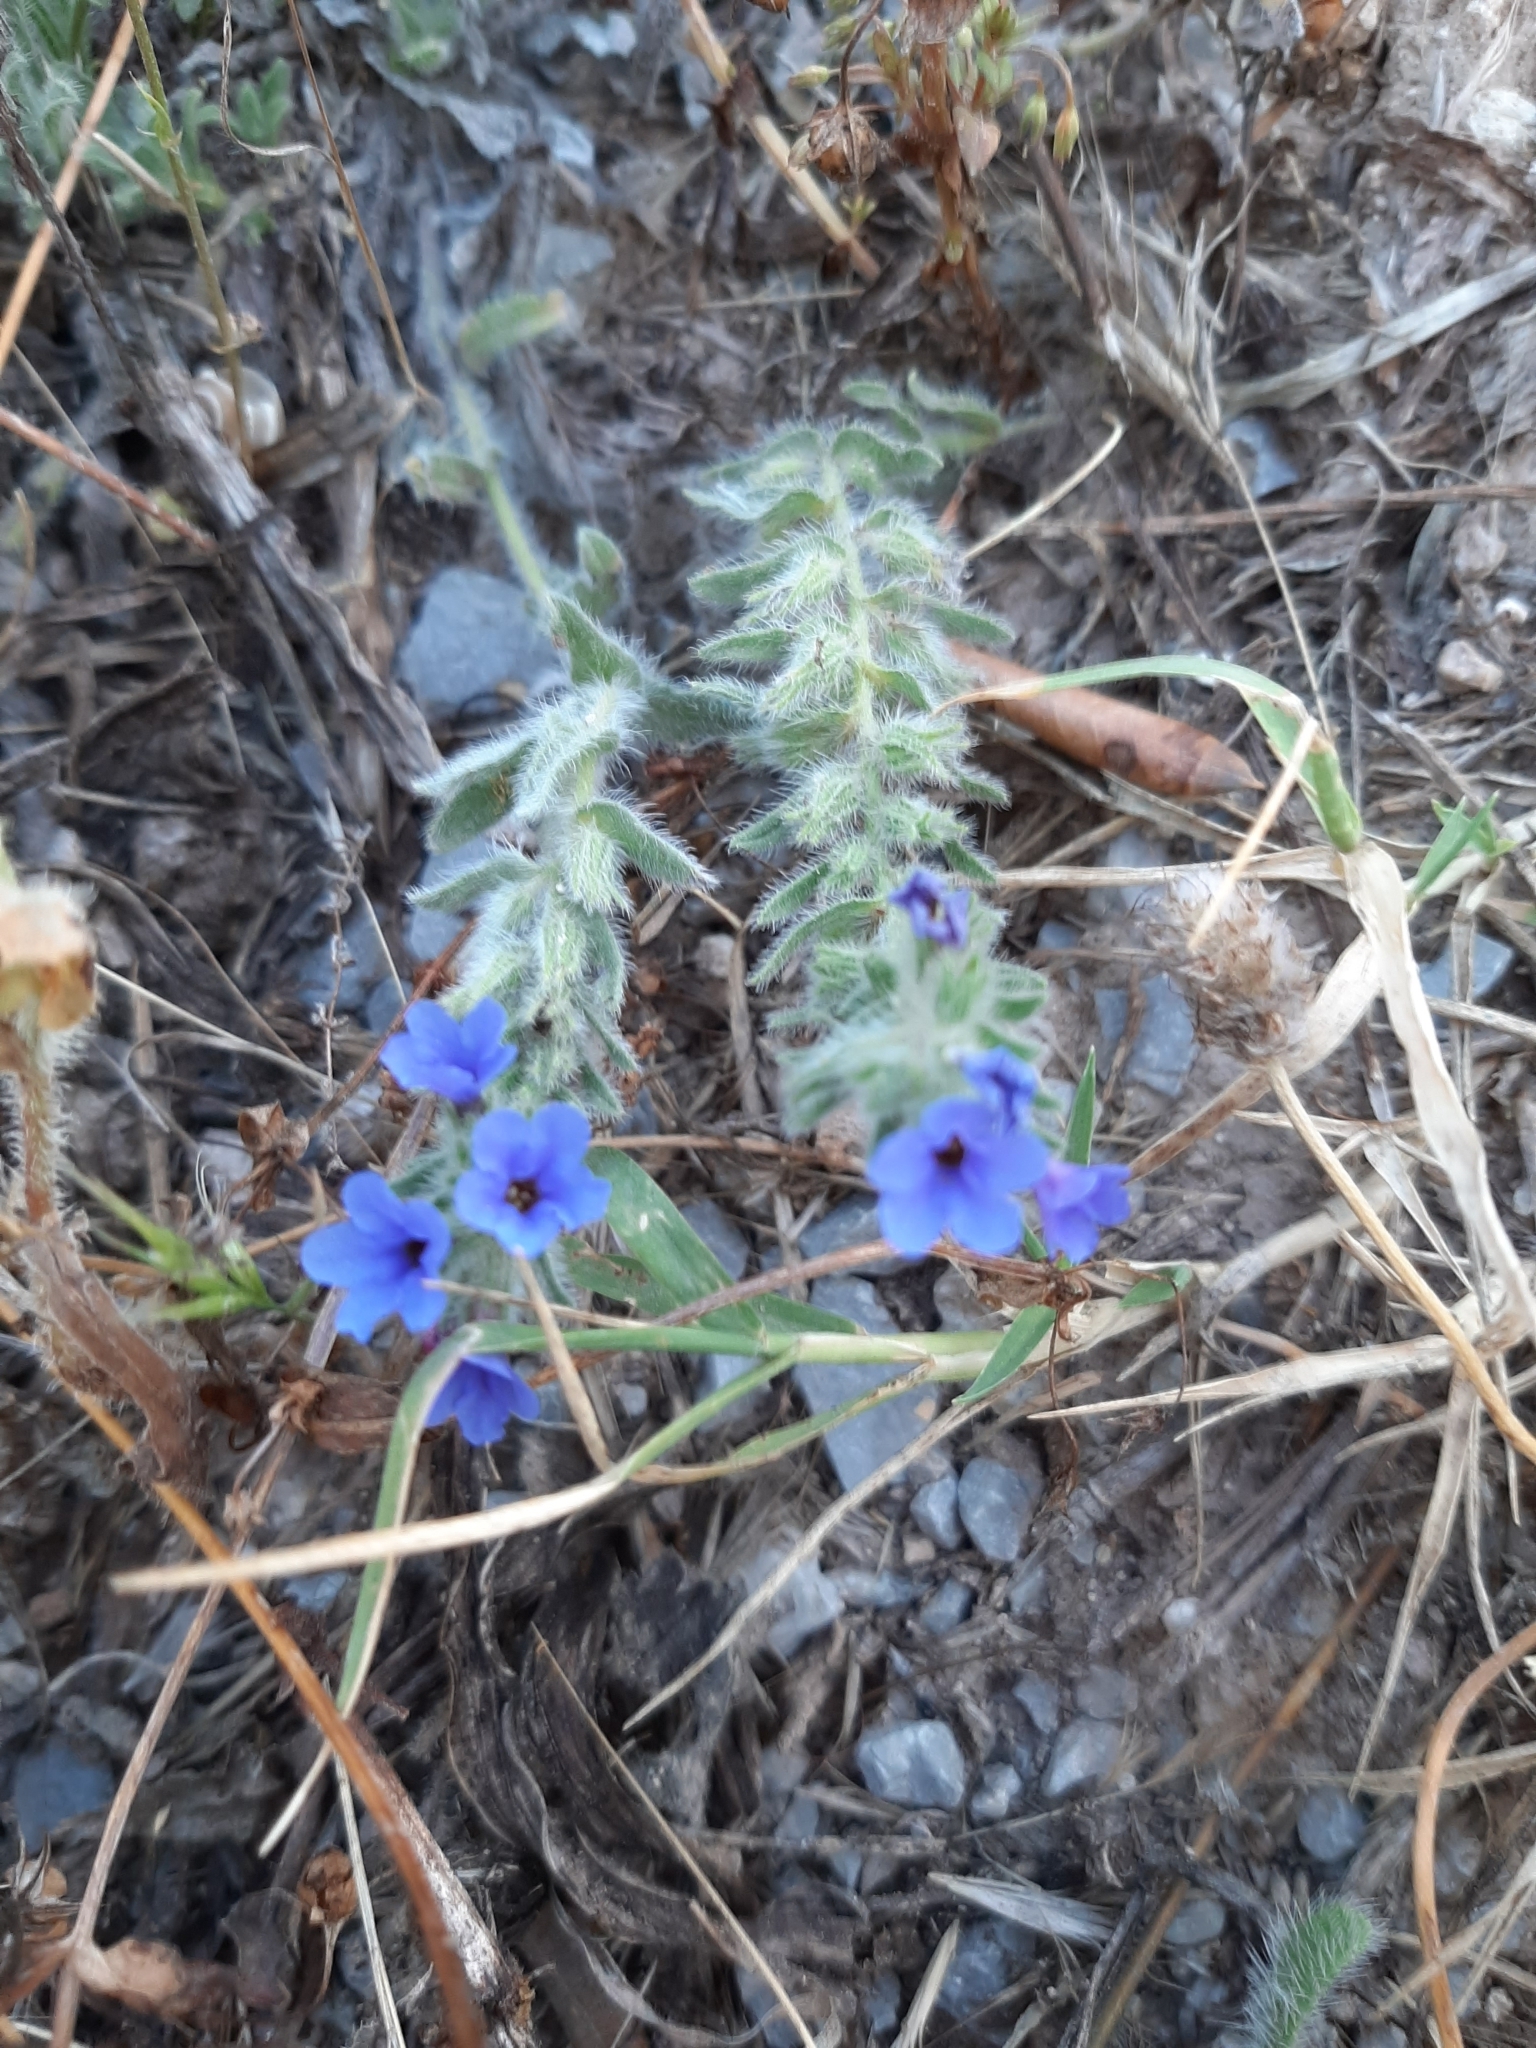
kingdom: Plantae
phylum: Tracheophyta
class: Magnoliopsida
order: Boraginales
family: Boraginaceae
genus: Alkanna
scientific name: Alkanna tinctoria
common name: Dyer's-alkanet
